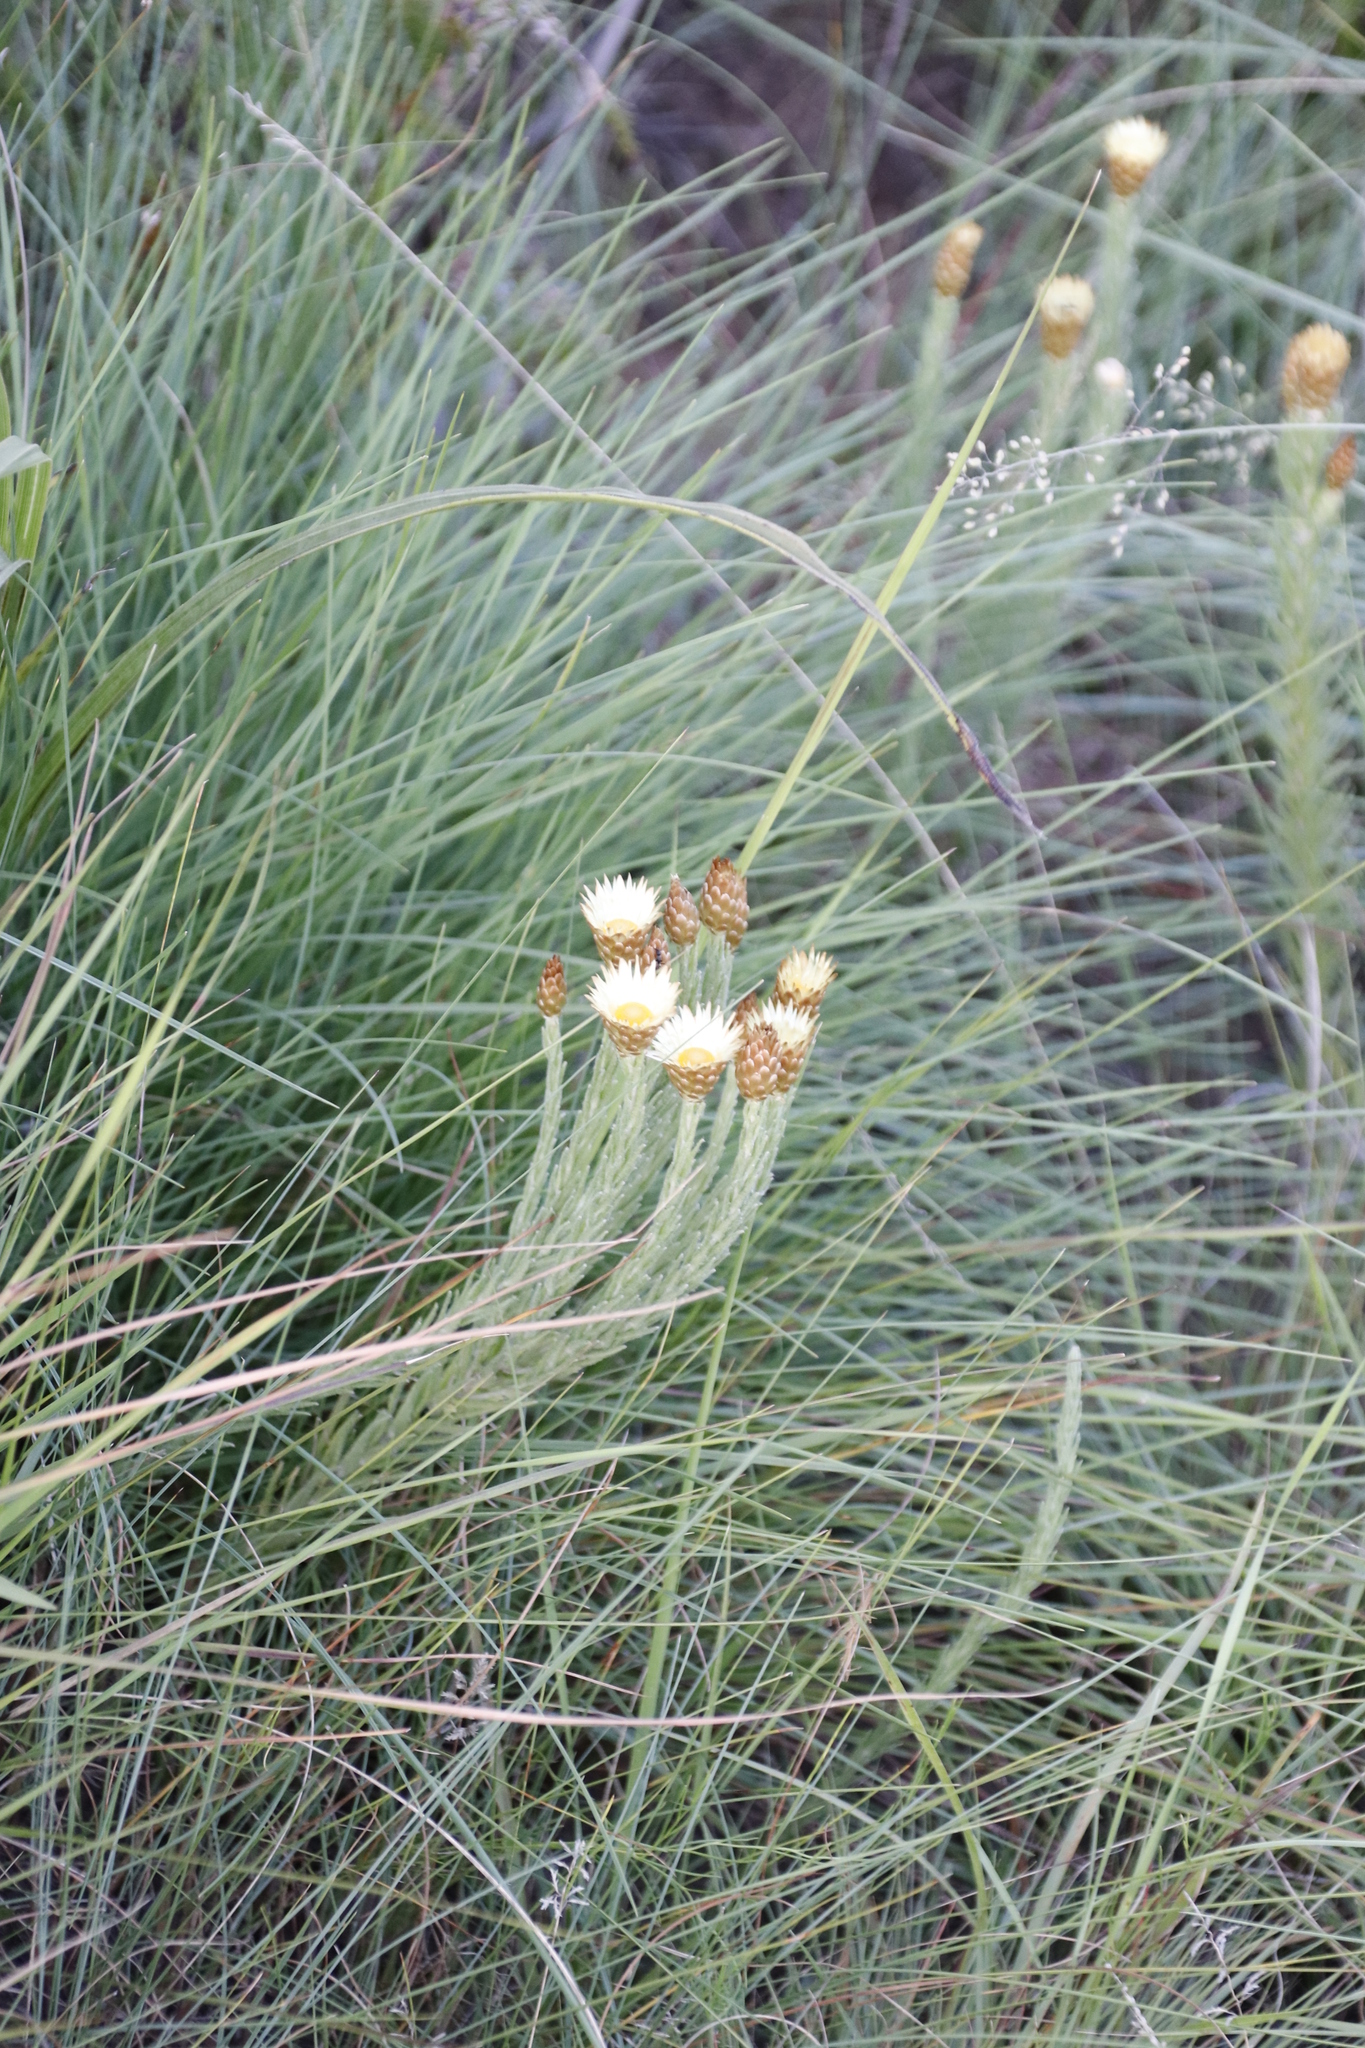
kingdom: Plantae
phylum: Tracheophyta
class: Magnoliopsida
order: Asterales
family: Asteraceae
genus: Helichrysum
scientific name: Helichrysum herbaceum
